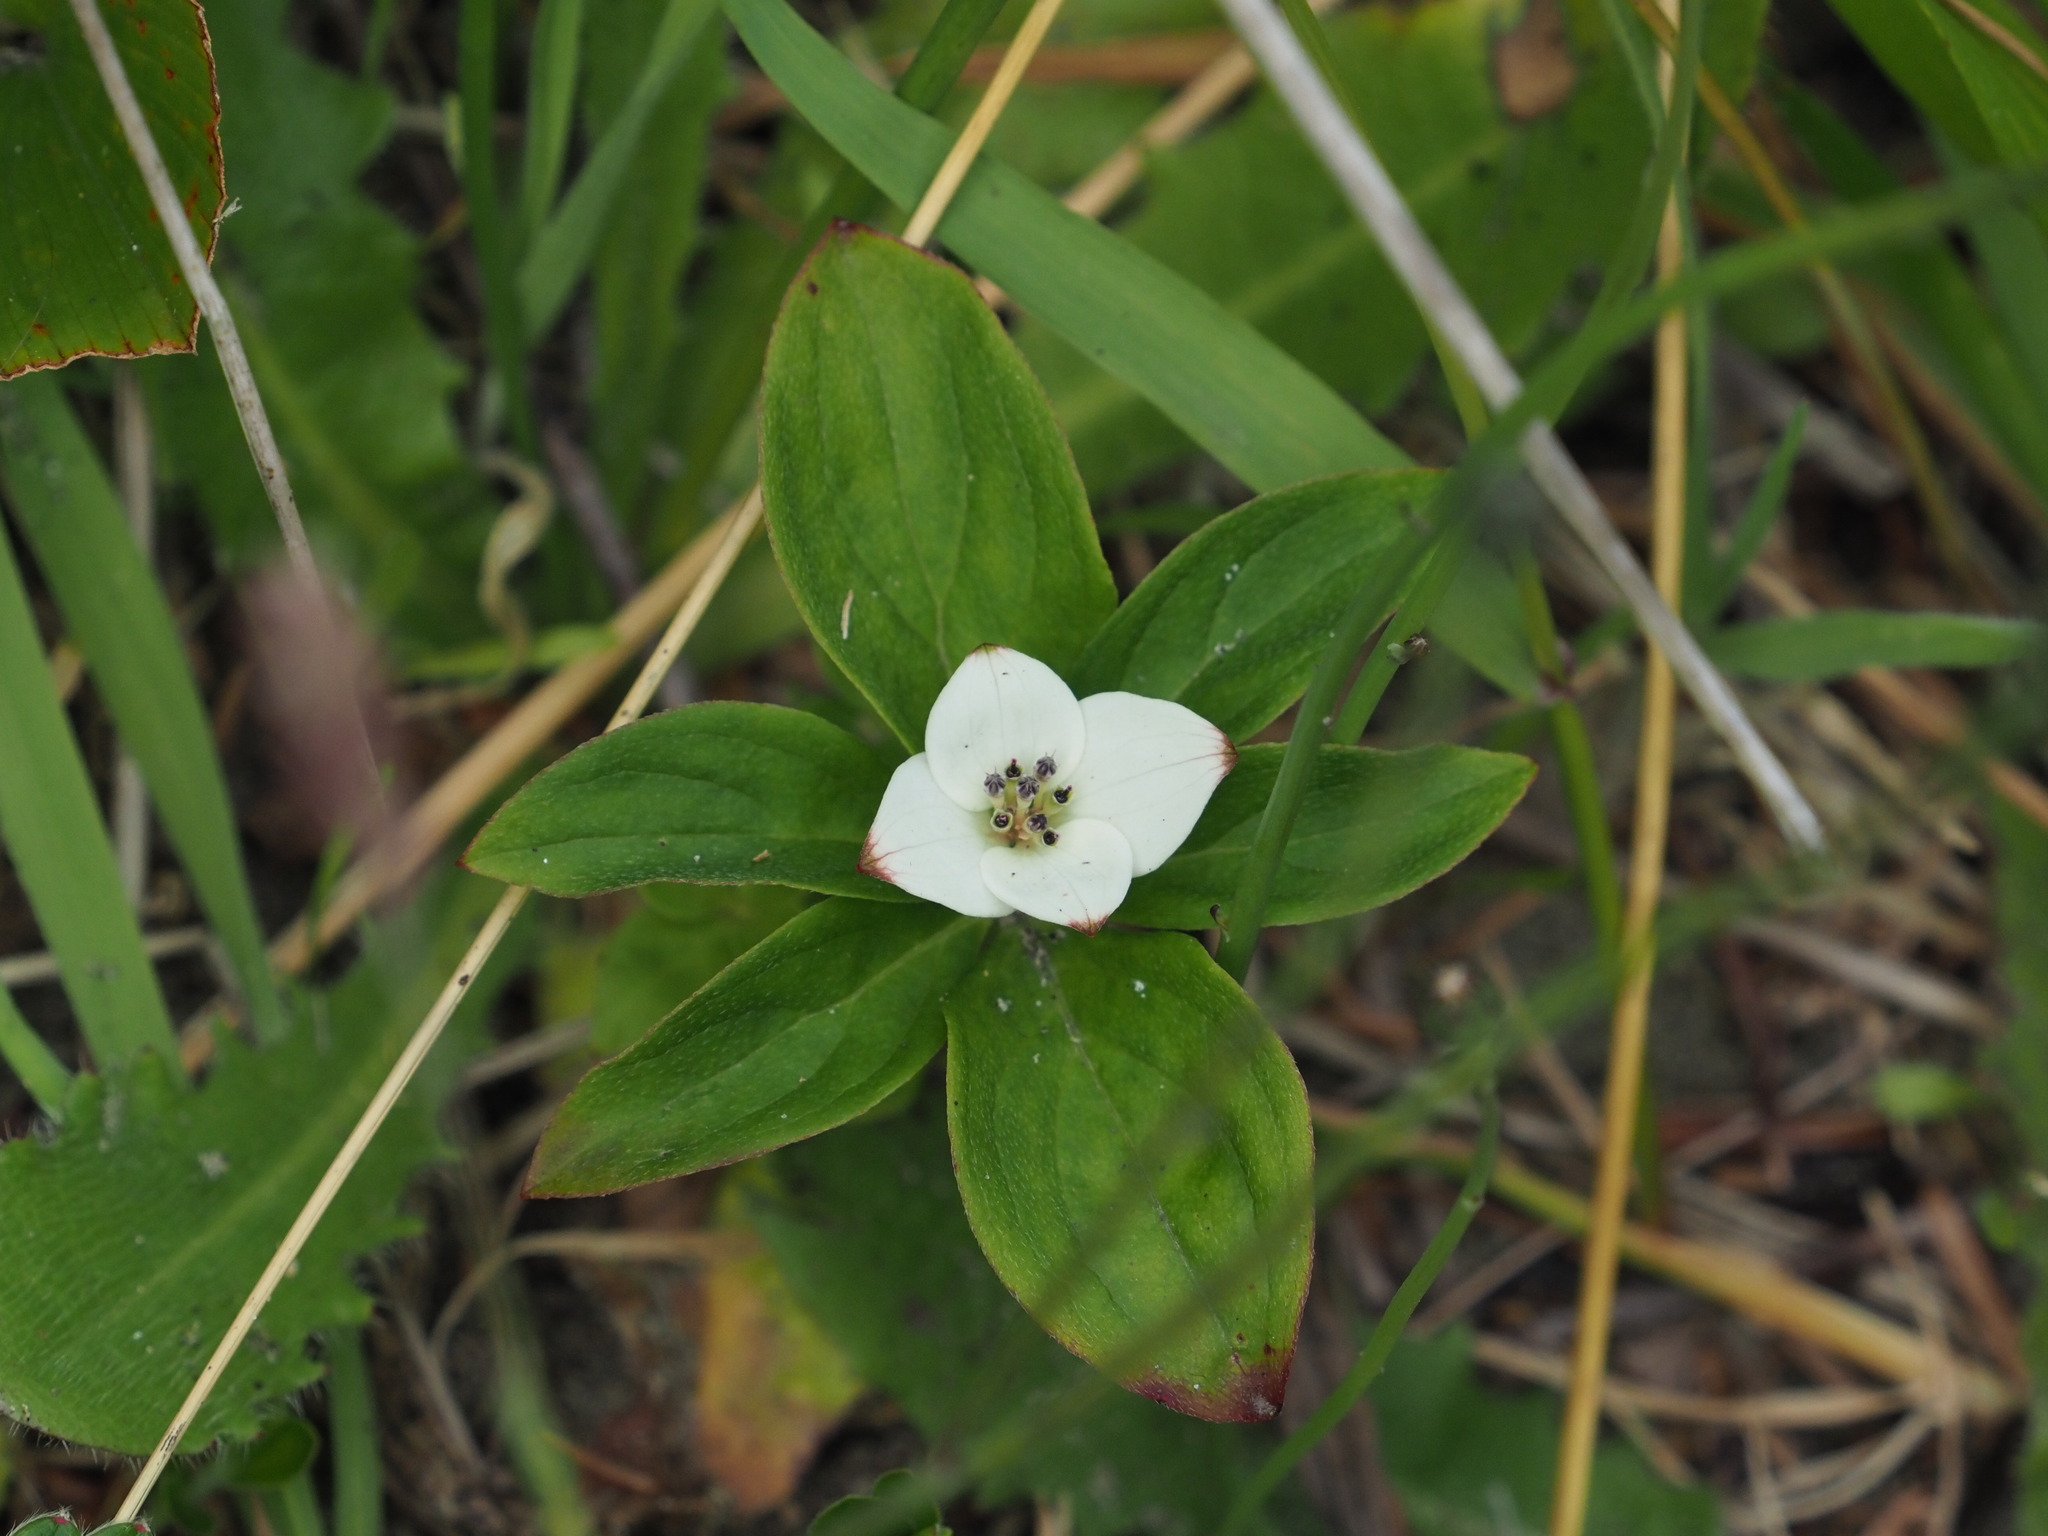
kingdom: Plantae
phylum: Tracheophyta
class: Magnoliopsida
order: Cornales
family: Cornaceae
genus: Cornus
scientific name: Cornus unalaschkensis
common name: Alaska bunchberry
